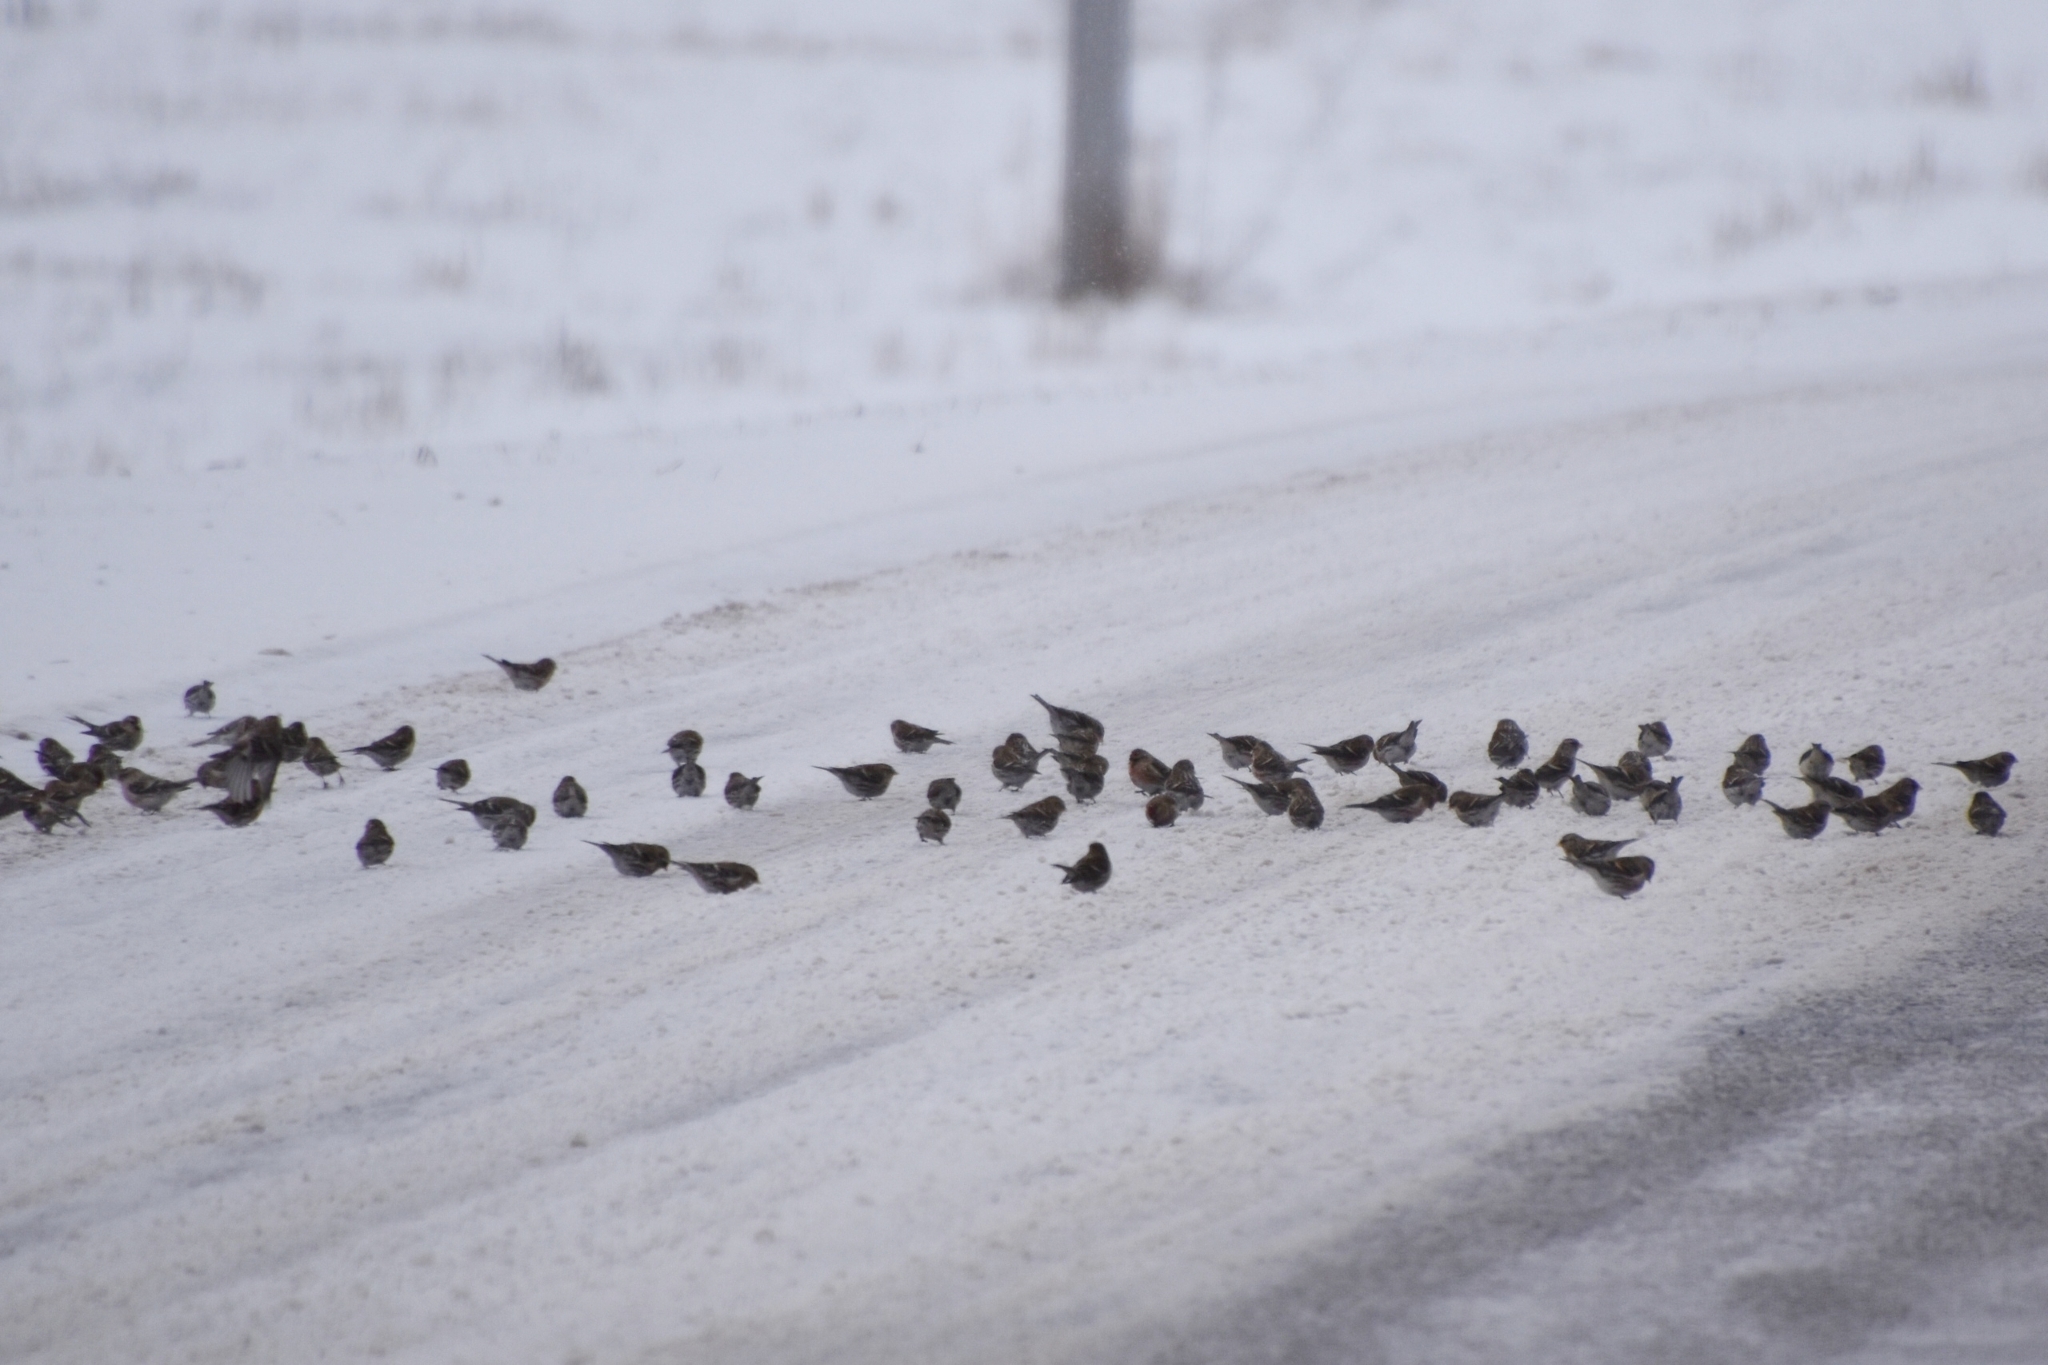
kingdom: Animalia
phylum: Chordata
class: Aves
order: Passeriformes
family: Fringillidae
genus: Acanthis
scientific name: Acanthis flammea
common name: Common redpoll
